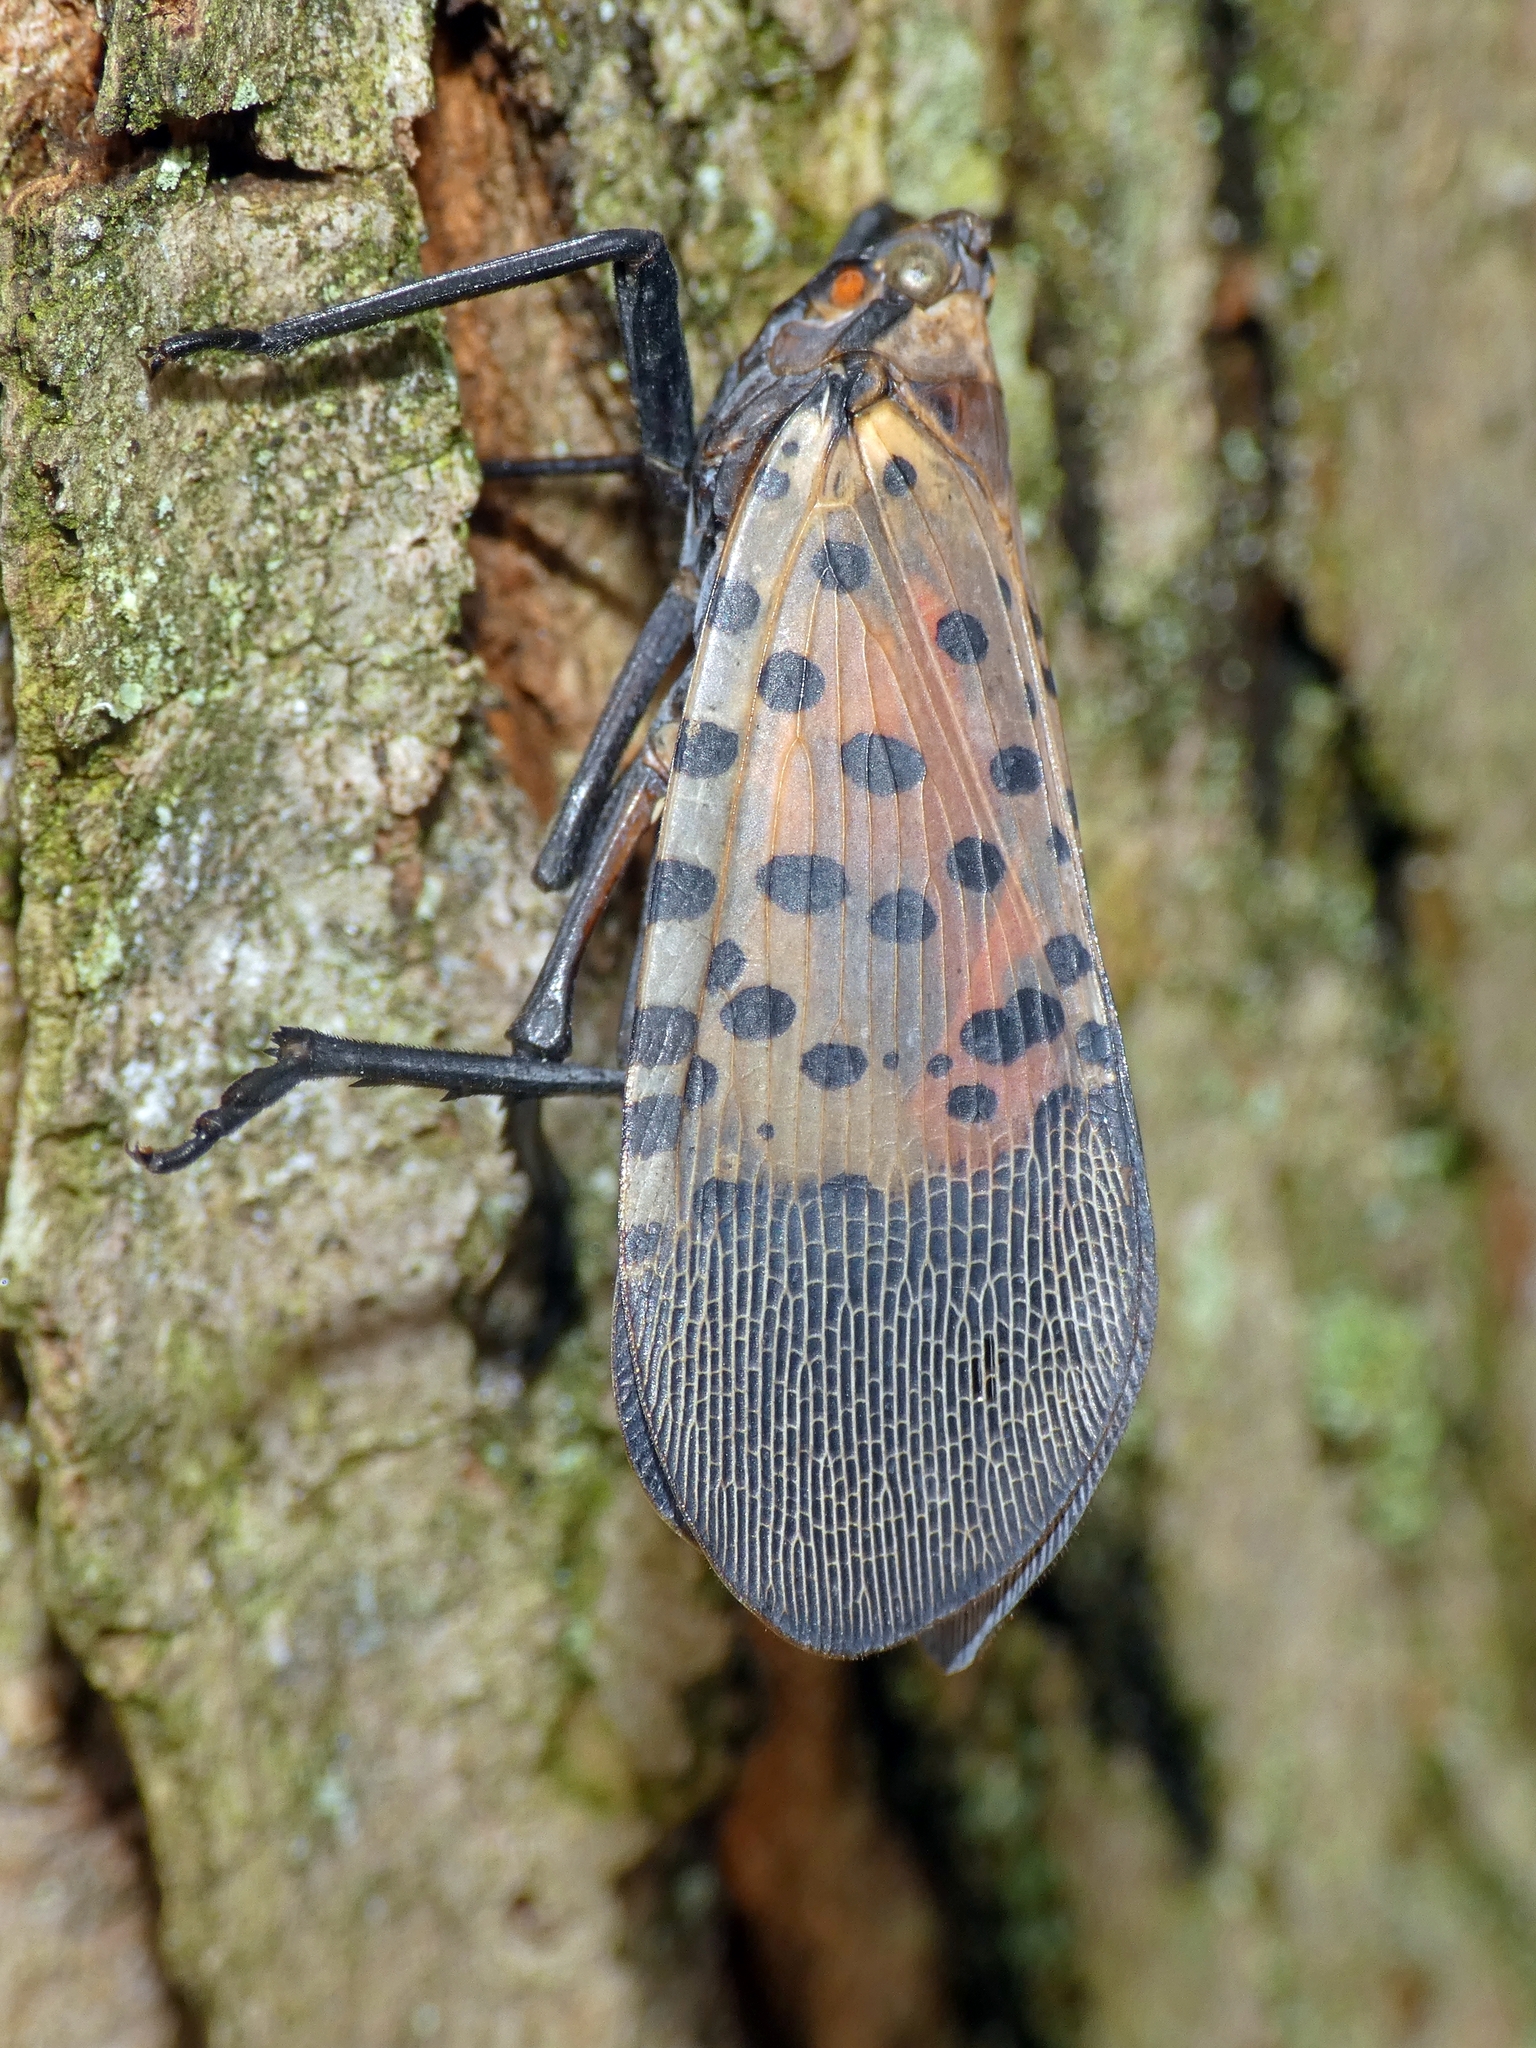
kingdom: Animalia
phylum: Arthropoda
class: Insecta
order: Hemiptera
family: Fulgoridae
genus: Lycorma
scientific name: Lycorma delicatula
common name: Spotted lanternfly
